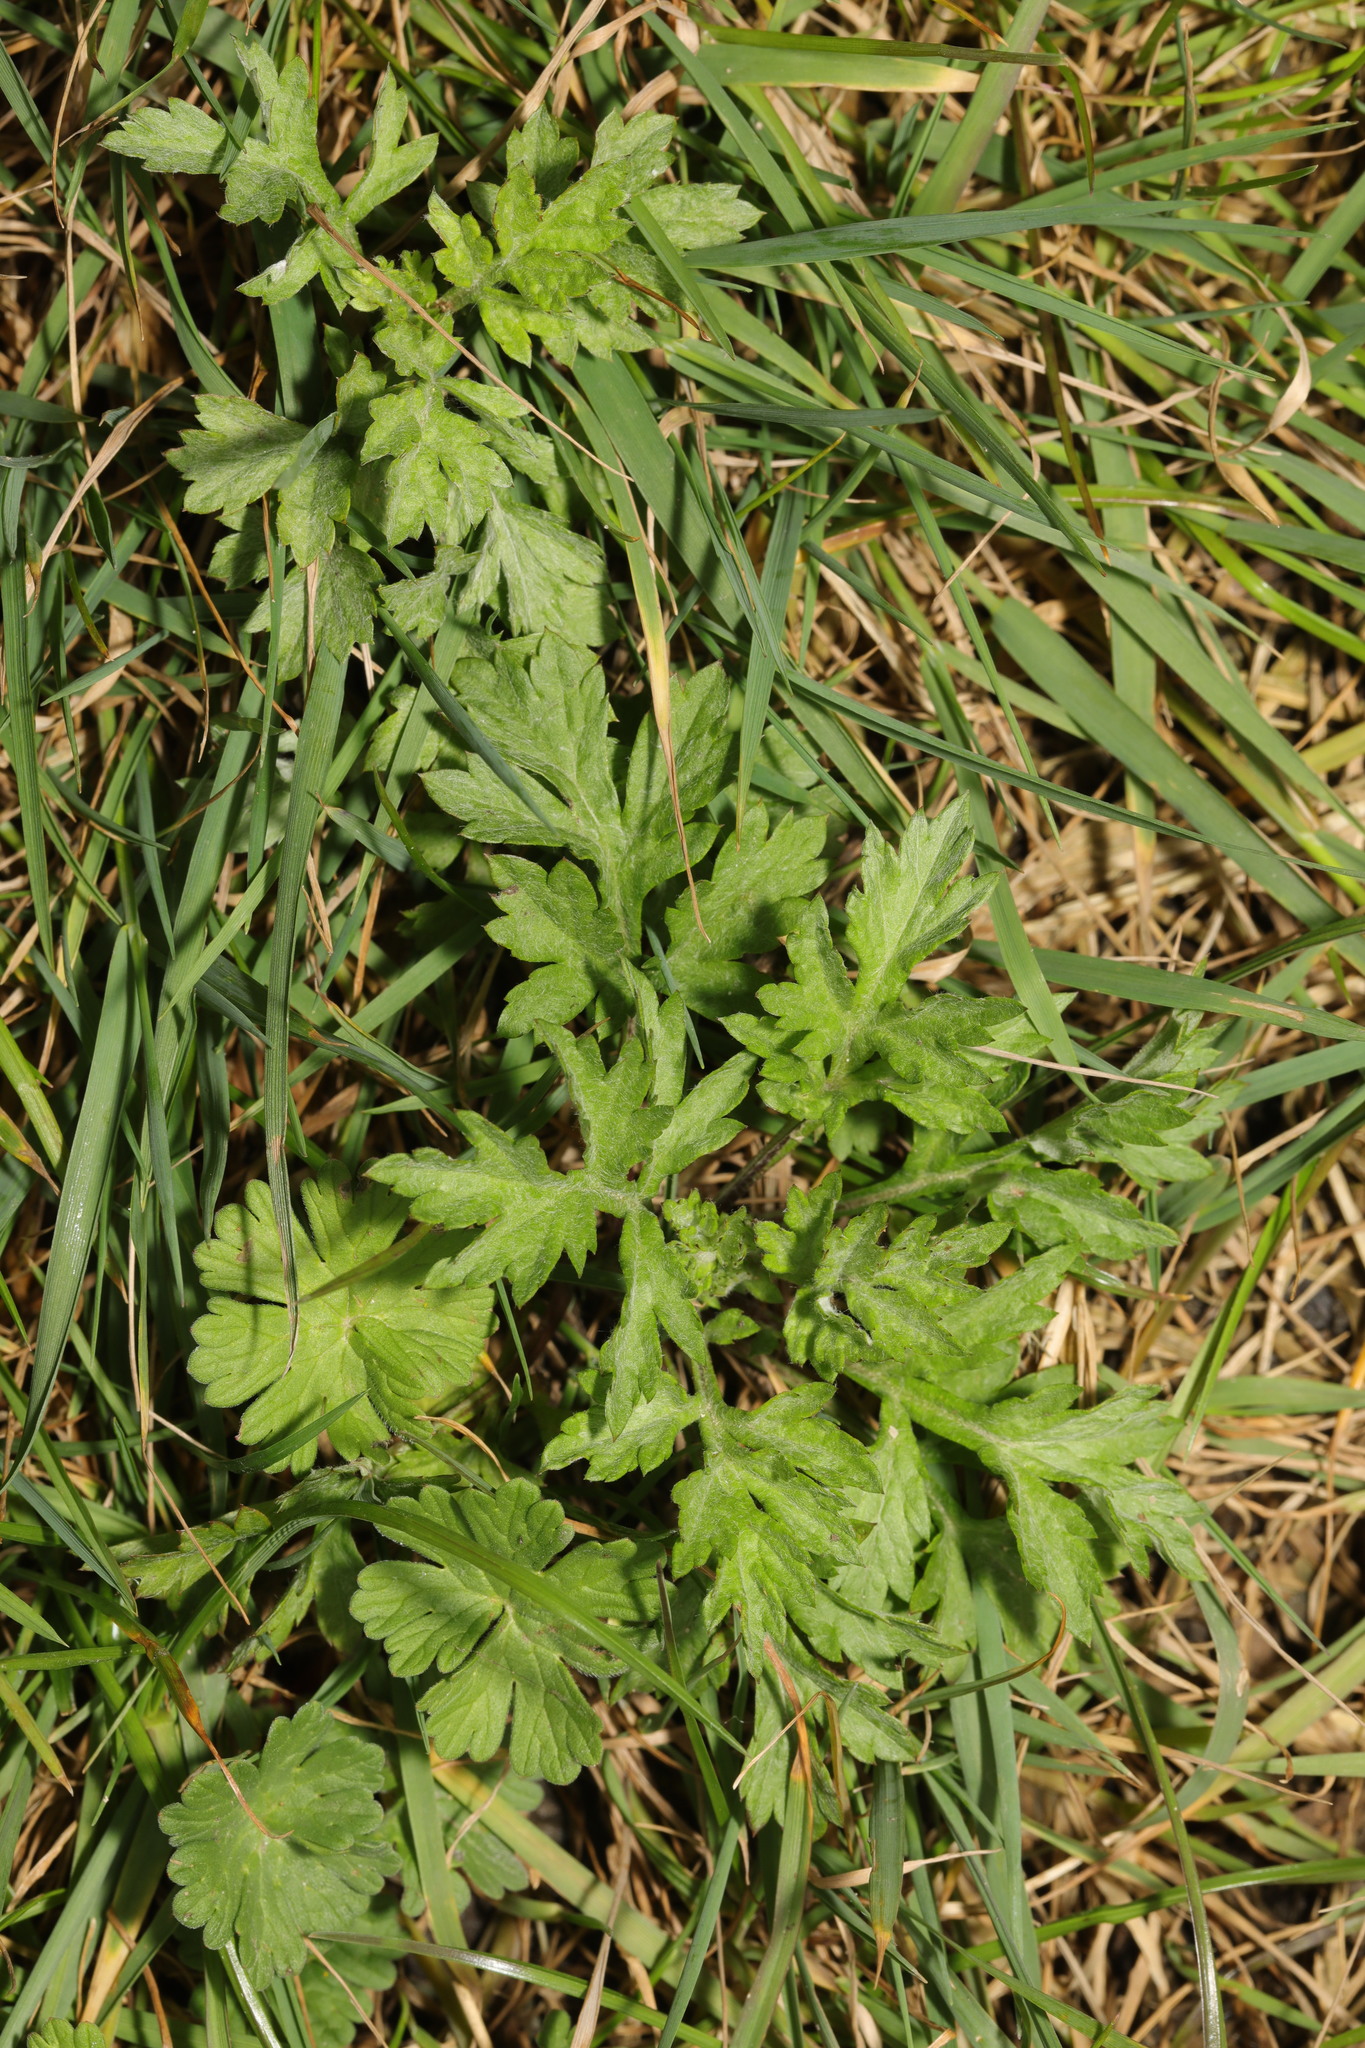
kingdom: Plantae
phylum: Tracheophyta
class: Magnoliopsida
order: Asterales
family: Asteraceae
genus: Artemisia
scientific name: Artemisia vulgaris
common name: Mugwort
